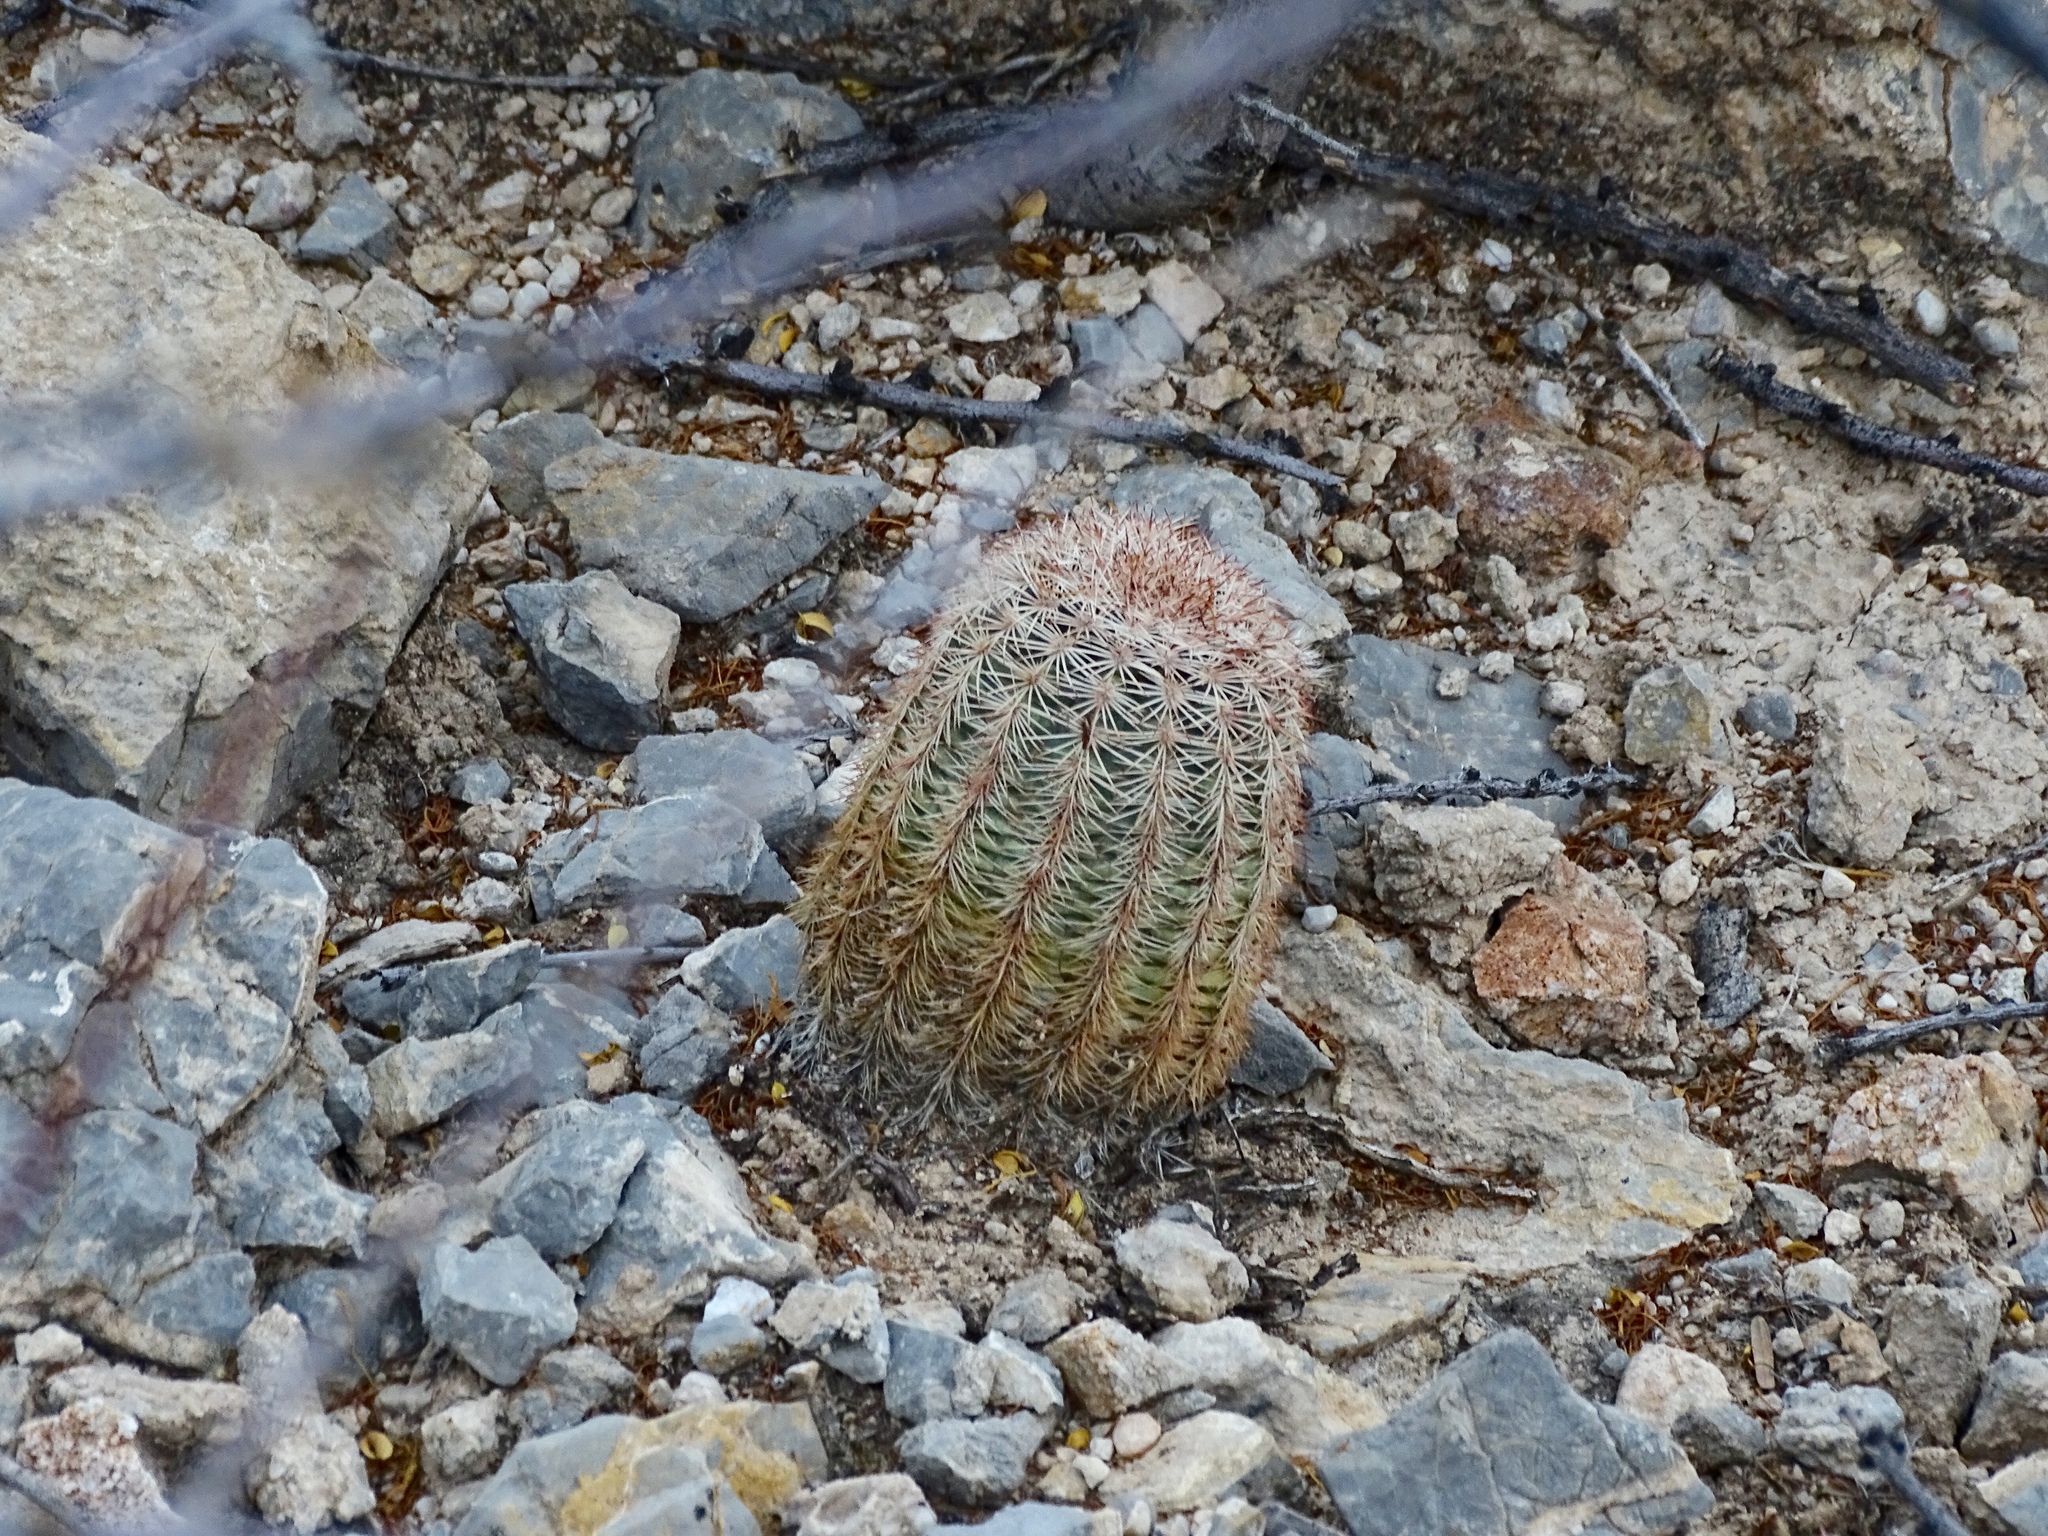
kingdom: Plantae
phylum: Tracheophyta
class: Magnoliopsida
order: Caryophyllales
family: Cactaceae
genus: Echinocereus
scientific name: Echinocereus dasyacanthus
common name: Spiny hedgehog cactus
